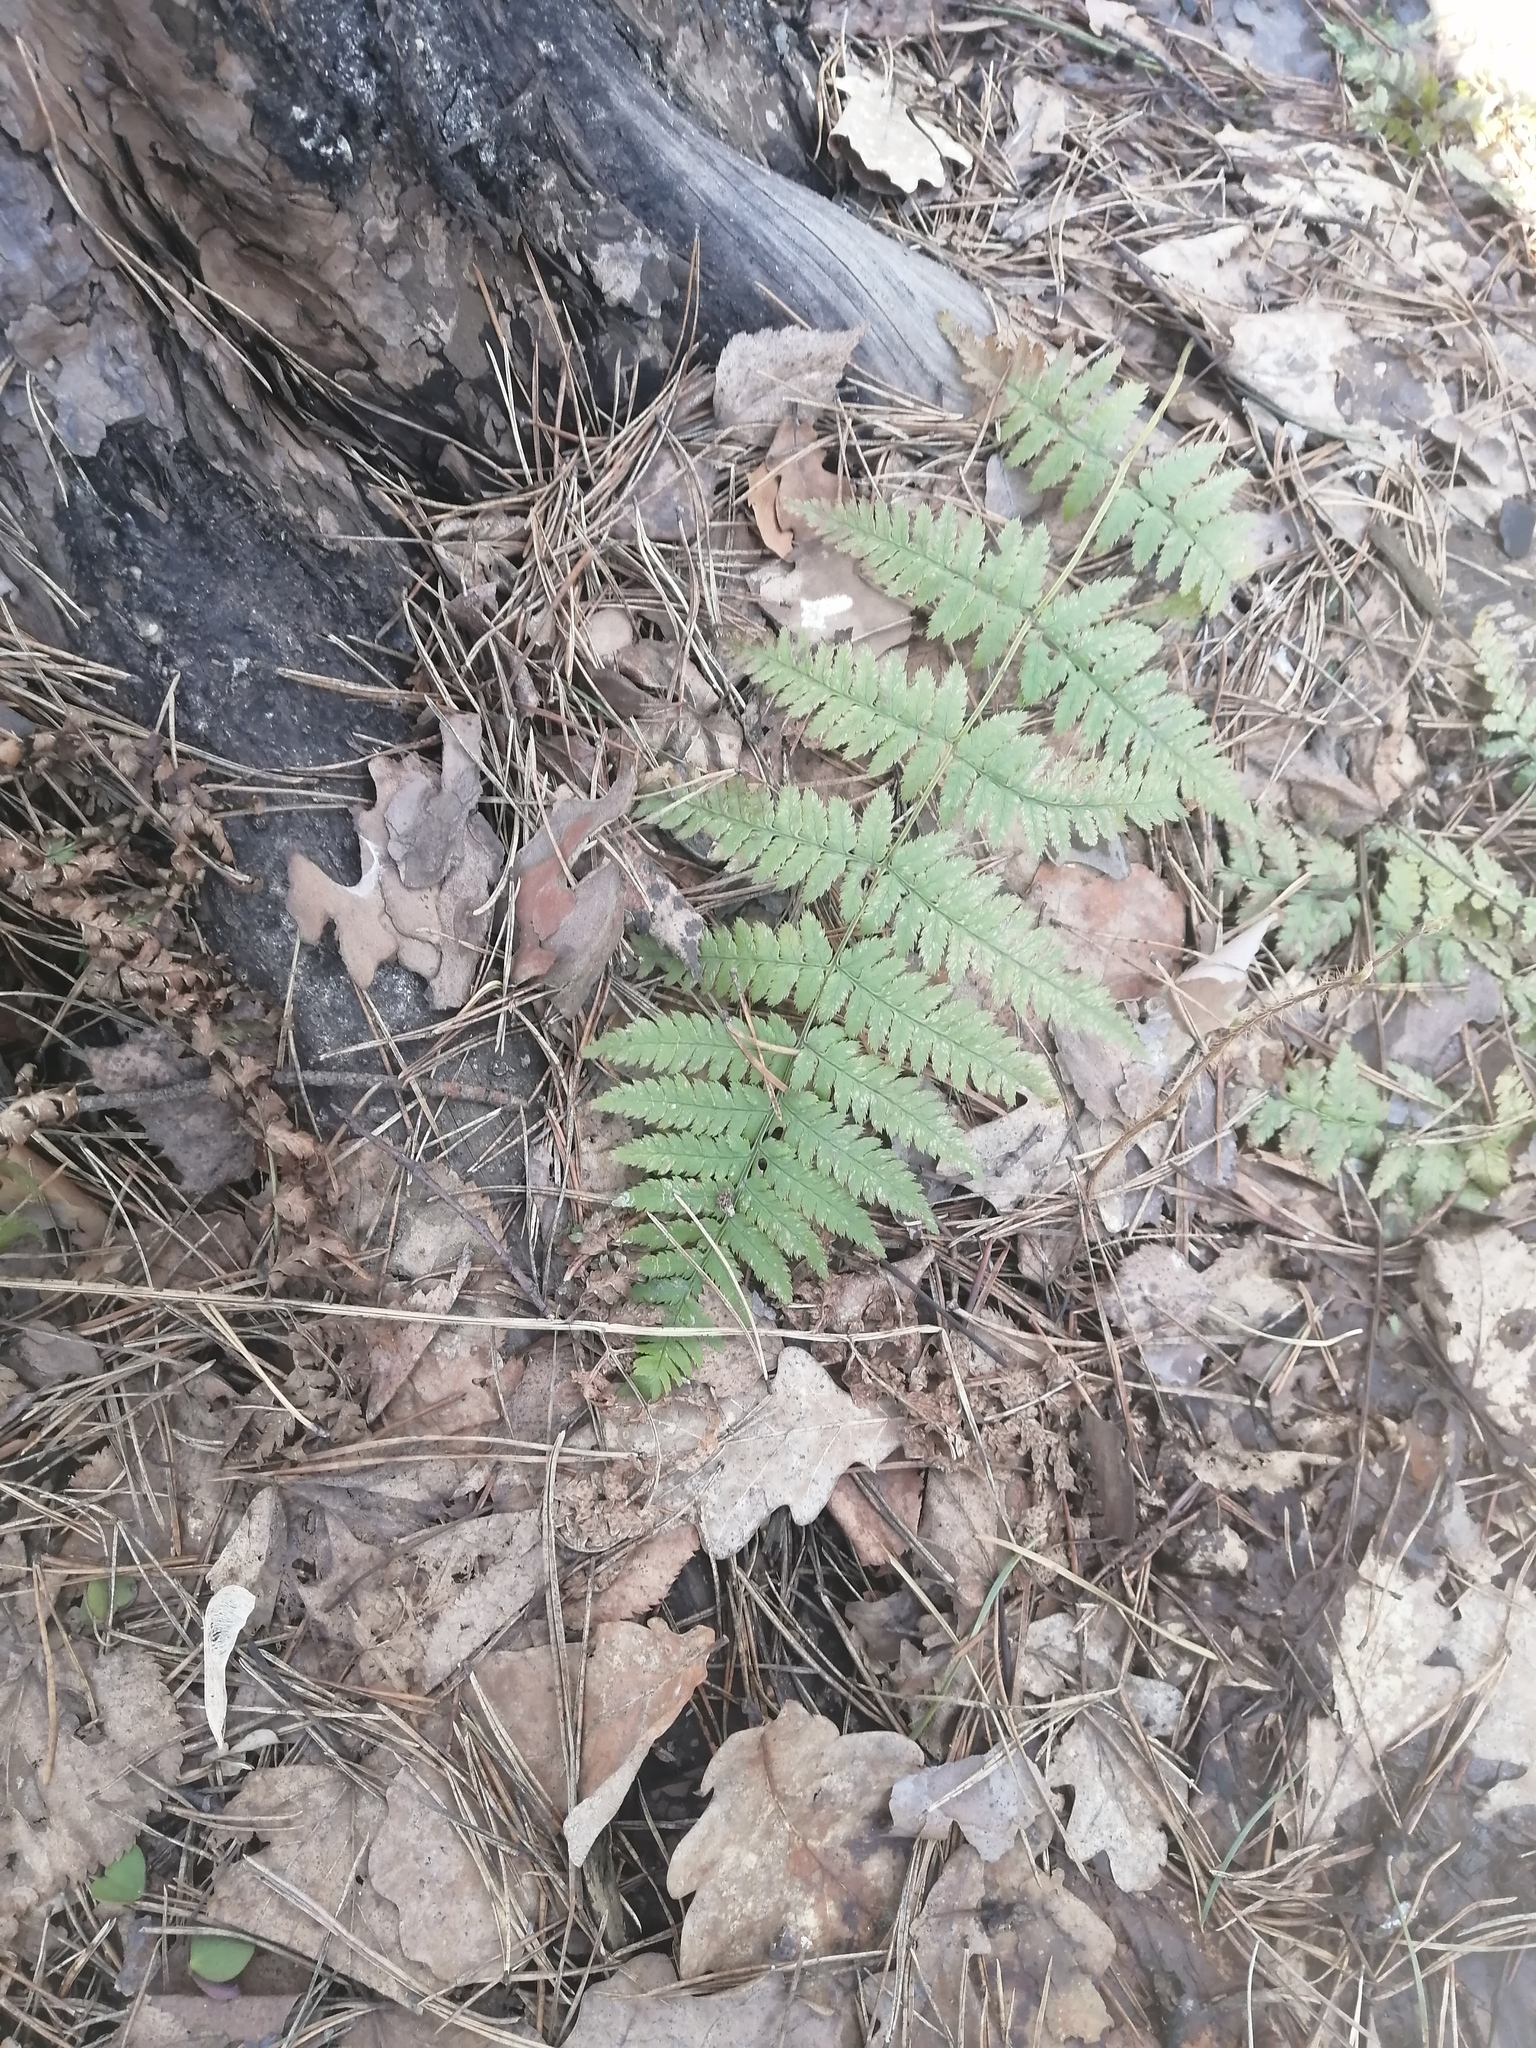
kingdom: Plantae
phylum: Tracheophyta
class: Polypodiopsida
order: Polypodiales
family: Dryopteridaceae
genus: Dryopteris
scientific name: Dryopteris carthusiana
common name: Narrow buckler-fern
